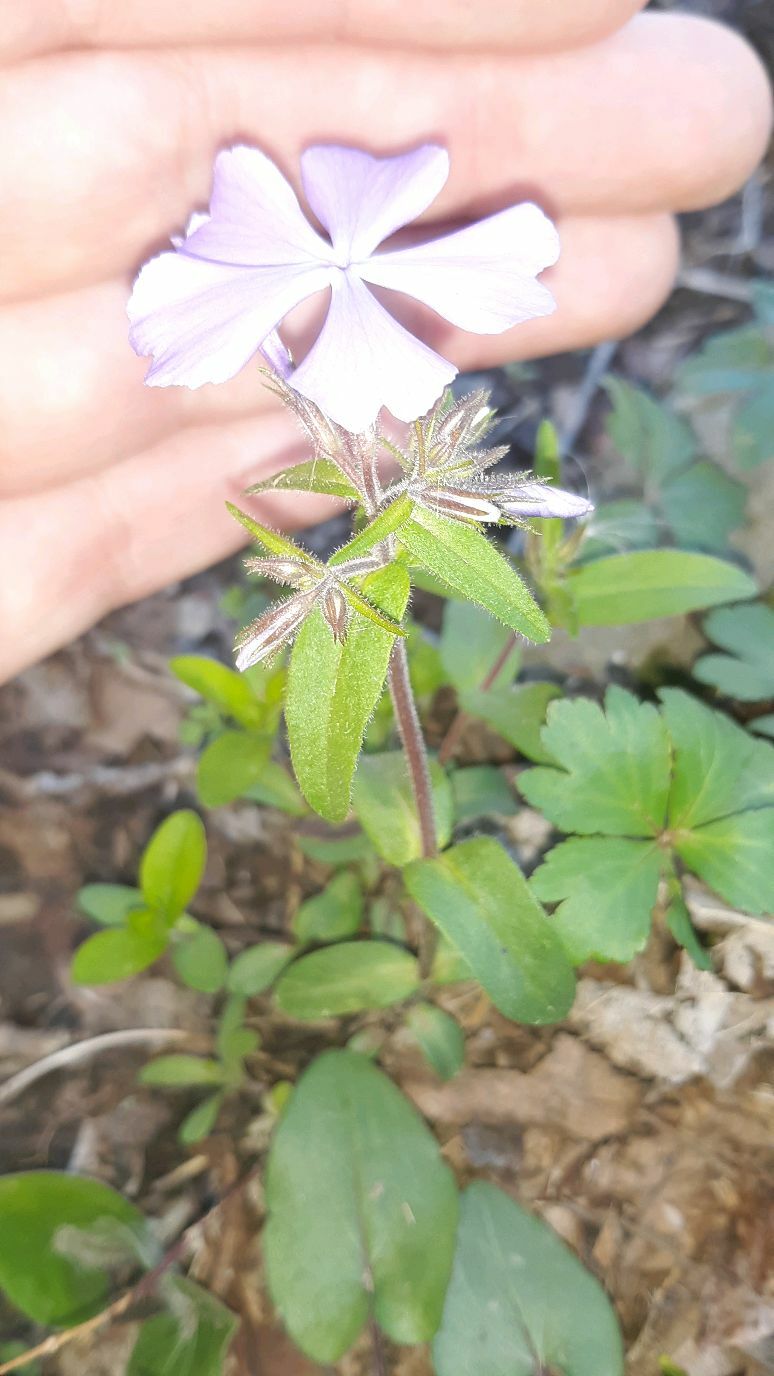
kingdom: Plantae
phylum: Tracheophyta
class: Magnoliopsida
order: Ericales
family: Polemoniaceae
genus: Phlox
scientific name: Phlox divaricata
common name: Blue phlox
